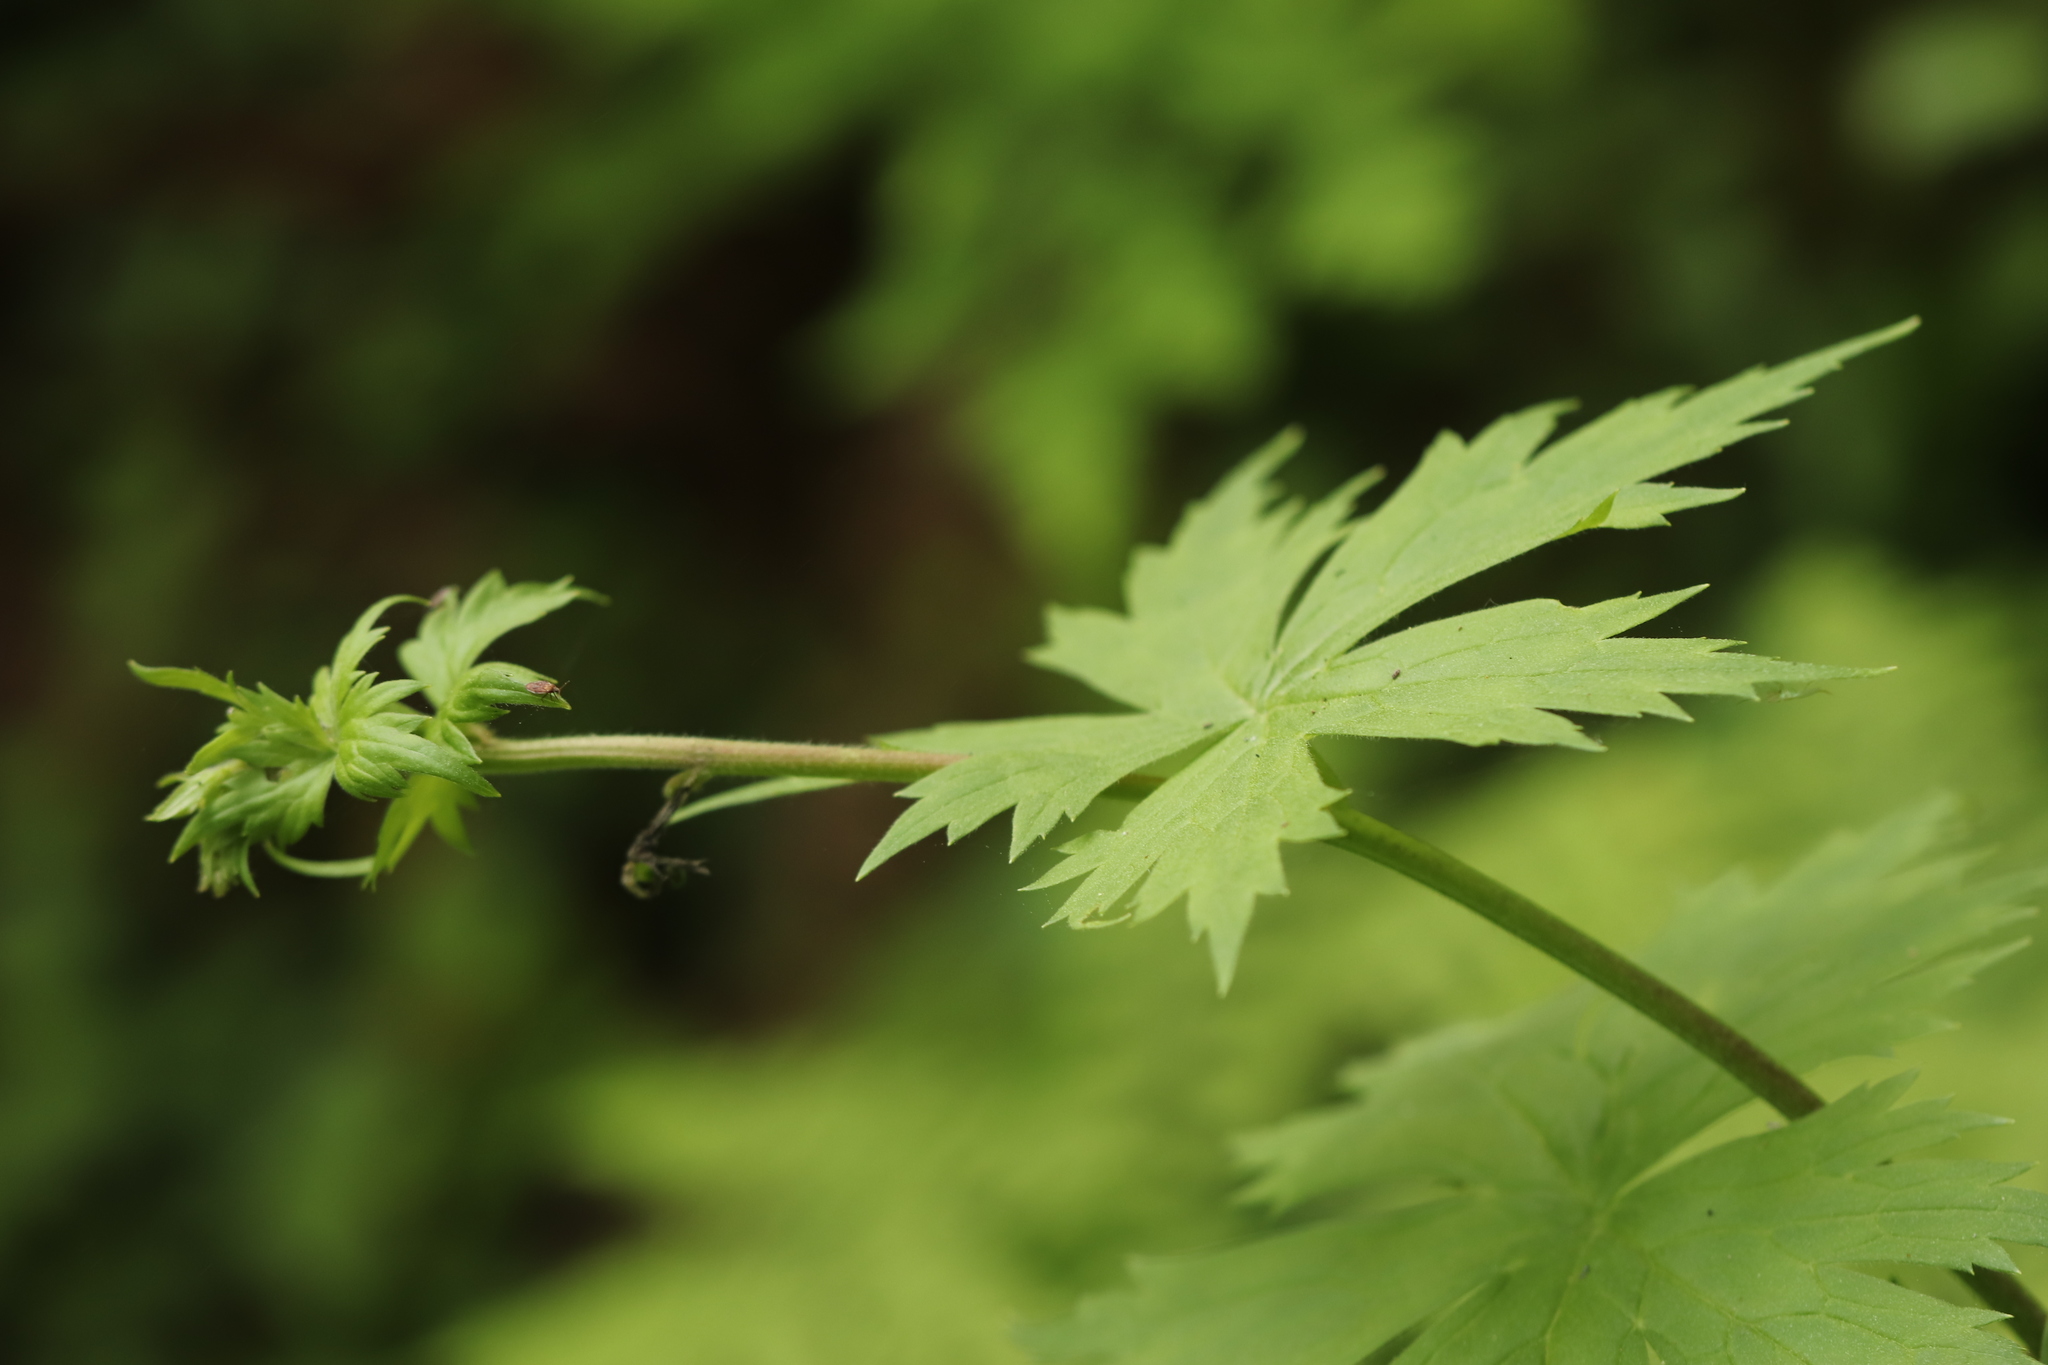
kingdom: Plantae
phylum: Tracheophyta
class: Magnoliopsida
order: Ranunculales
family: Ranunculaceae
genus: Aconitum
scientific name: Aconitum septentrionale
